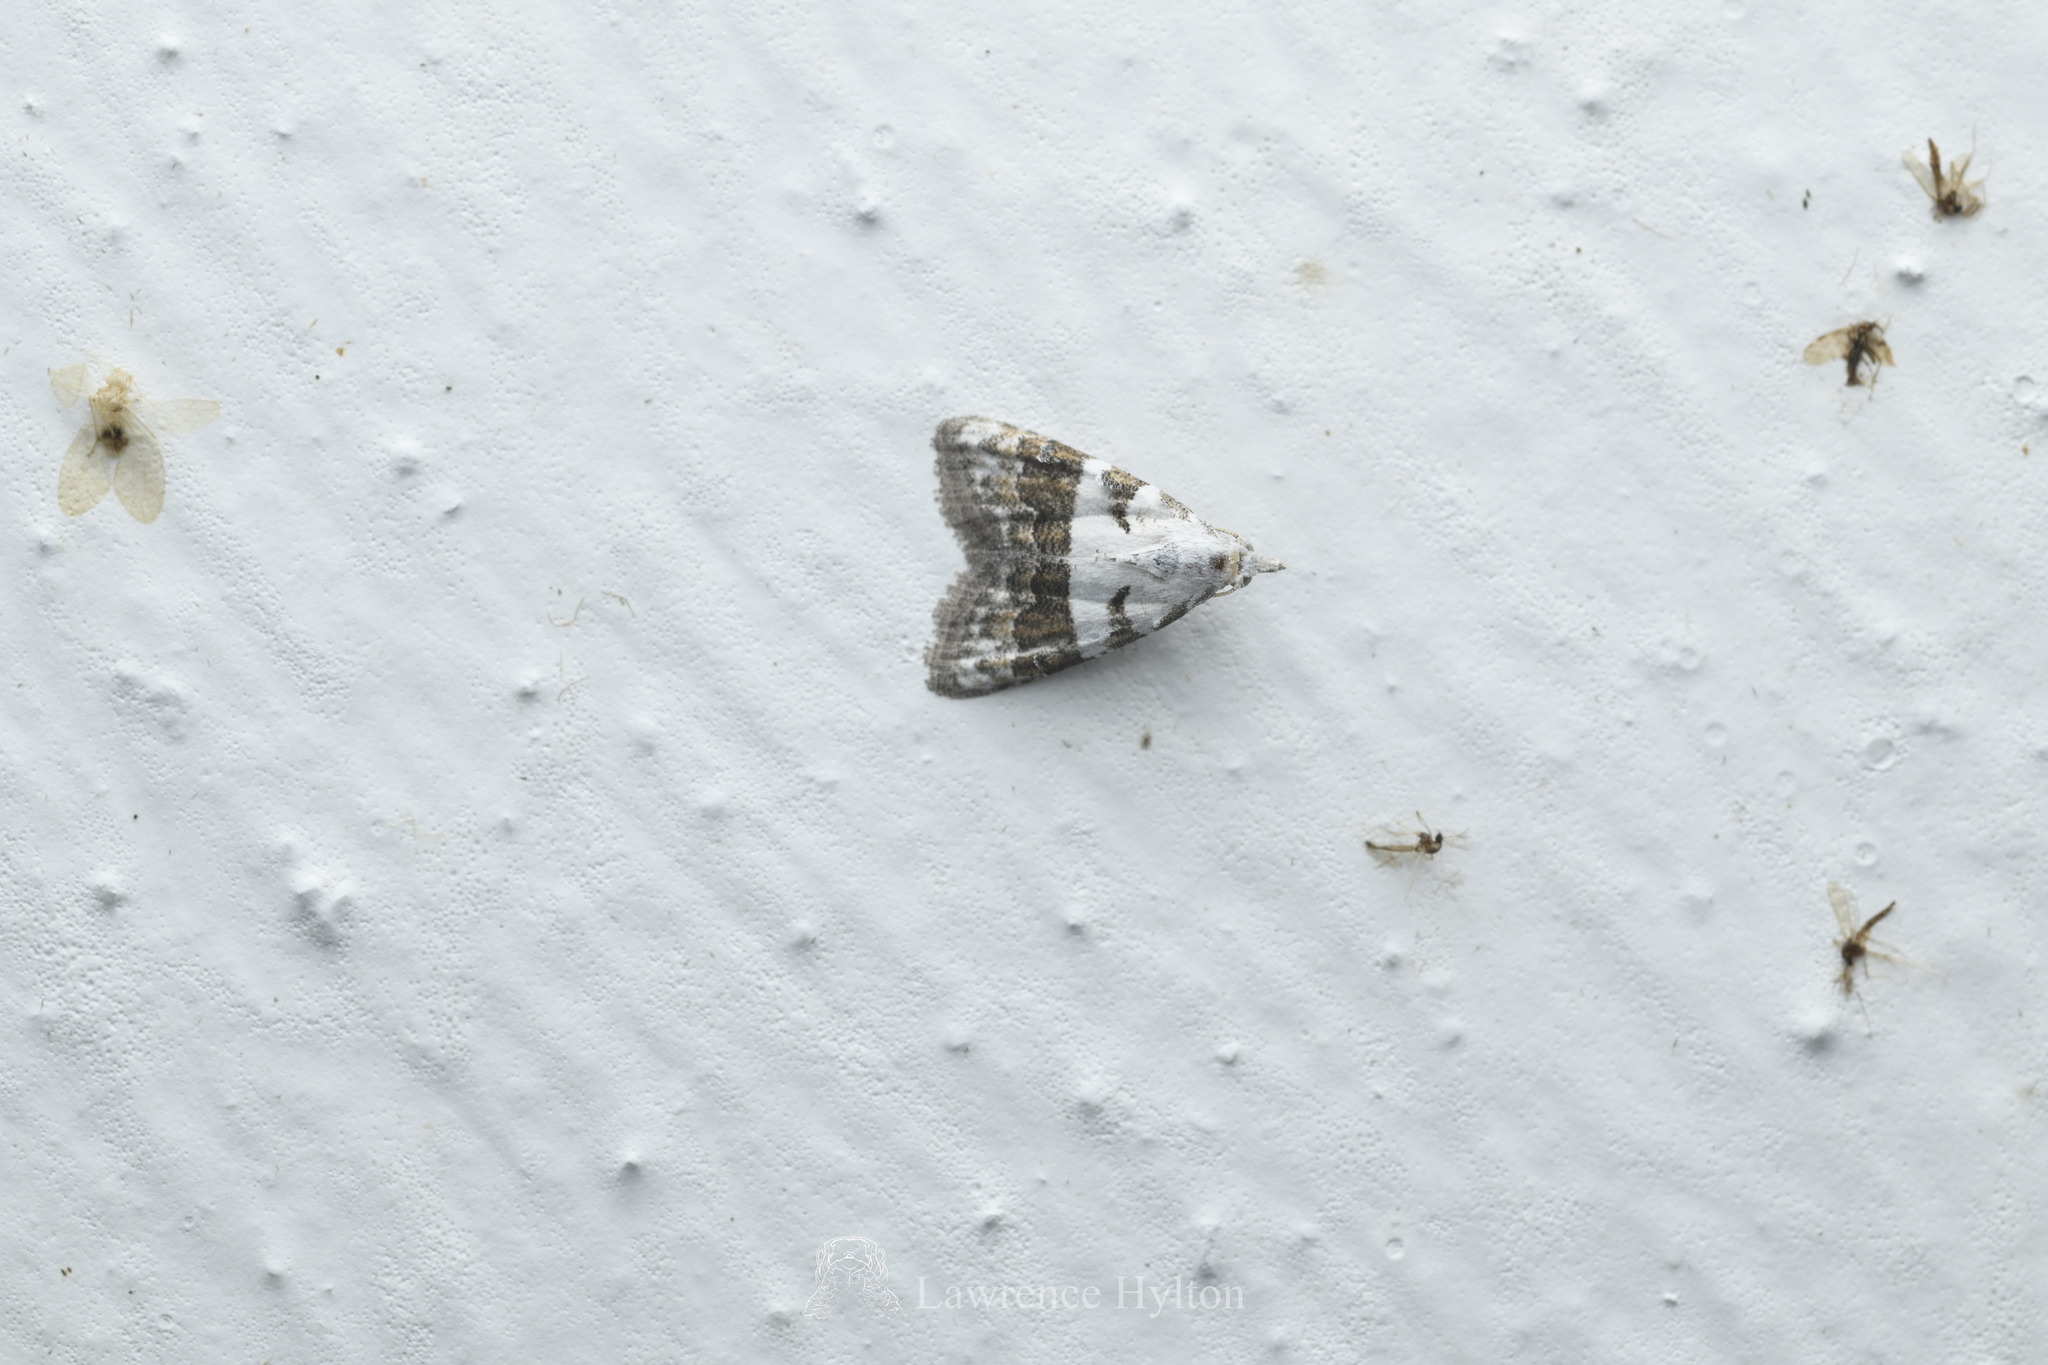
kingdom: Animalia
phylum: Arthropoda
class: Insecta
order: Lepidoptera
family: Nolidae
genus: Nola
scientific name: Nola lucidalis
